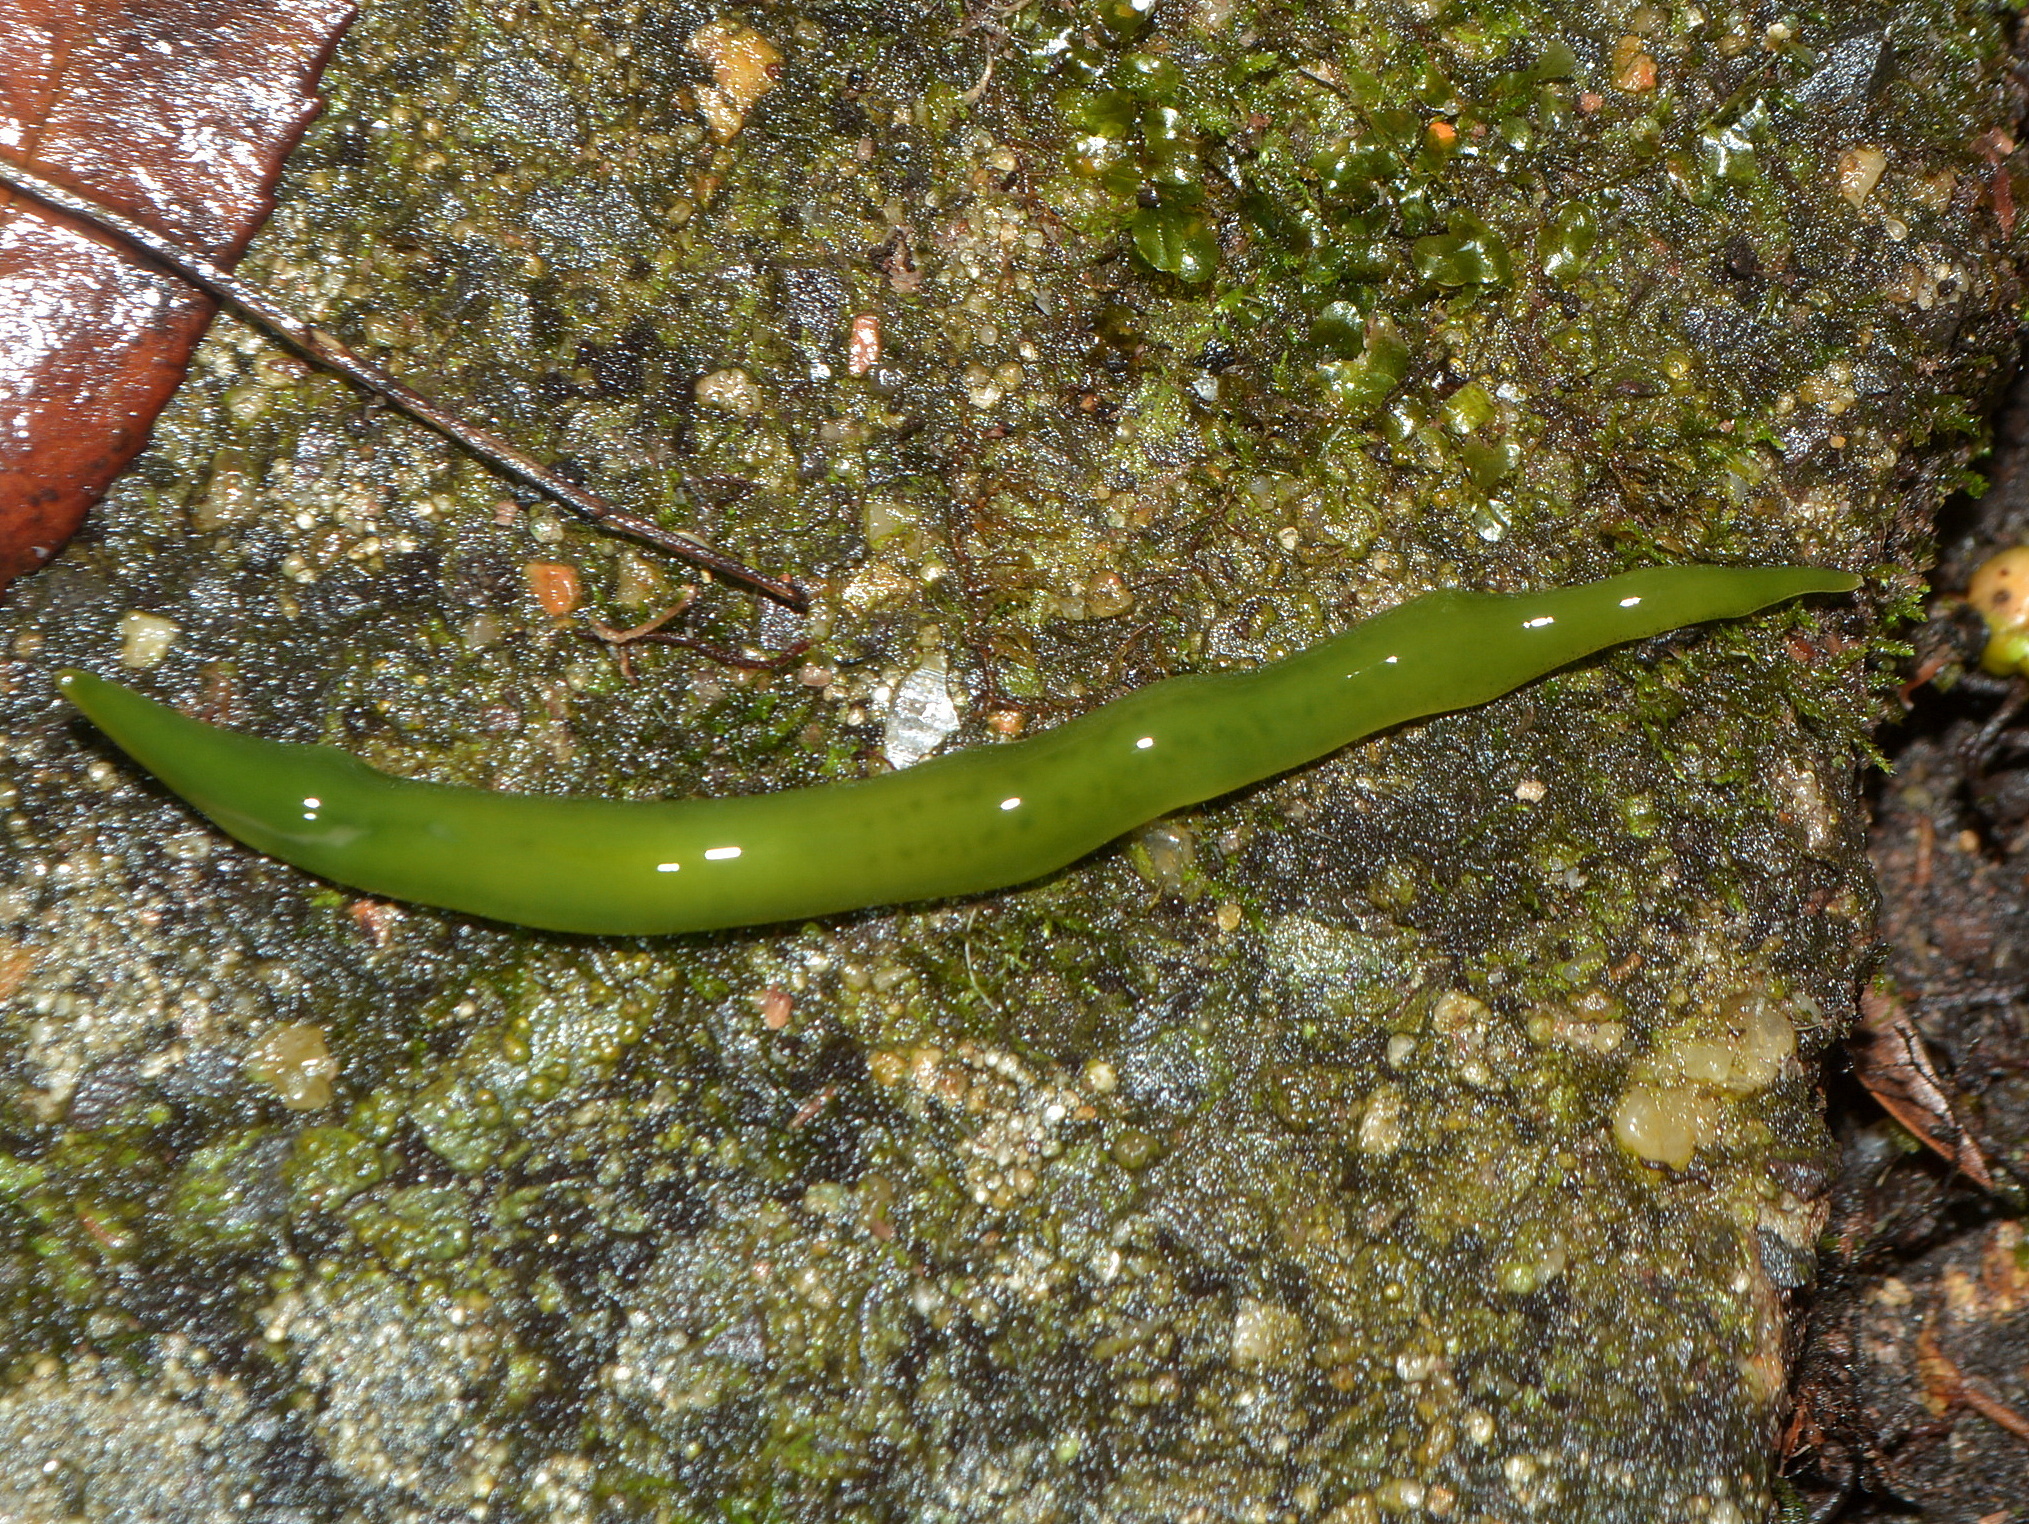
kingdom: Animalia
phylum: Platyhelminthes
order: Tricladida
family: Geoplanidae
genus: Obama
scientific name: Obama ladislavii
